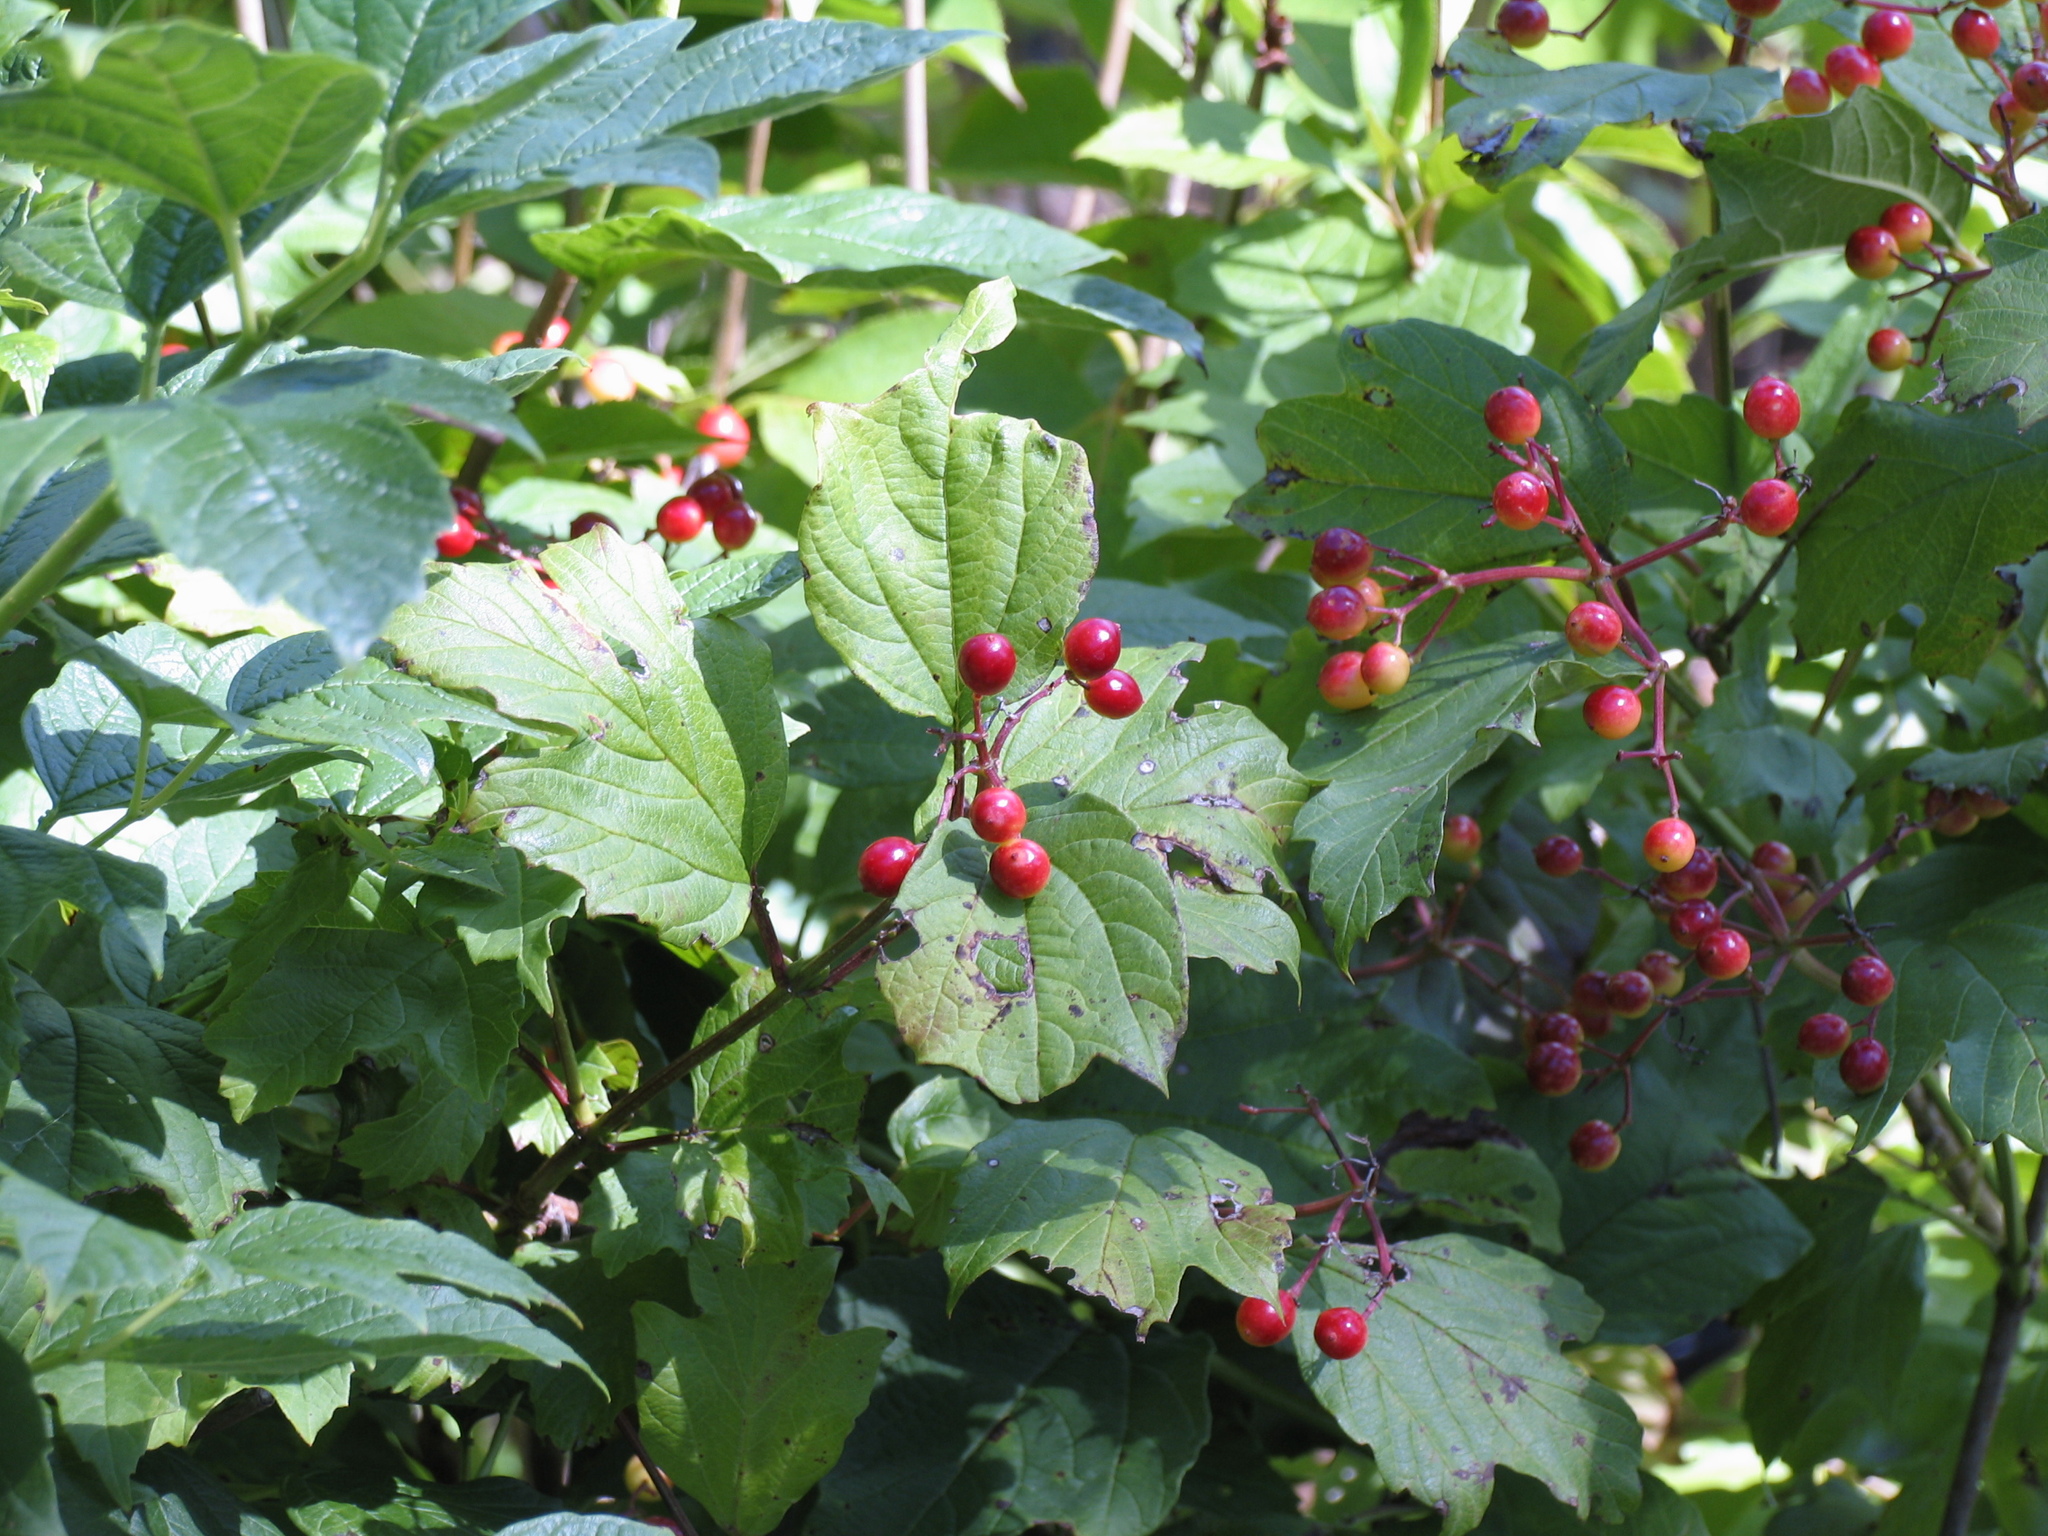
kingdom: Plantae
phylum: Tracheophyta
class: Magnoliopsida
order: Dipsacales
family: Viburnaceae
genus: Viburnum
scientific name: Viburnum opulus
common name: Guelder-rose
